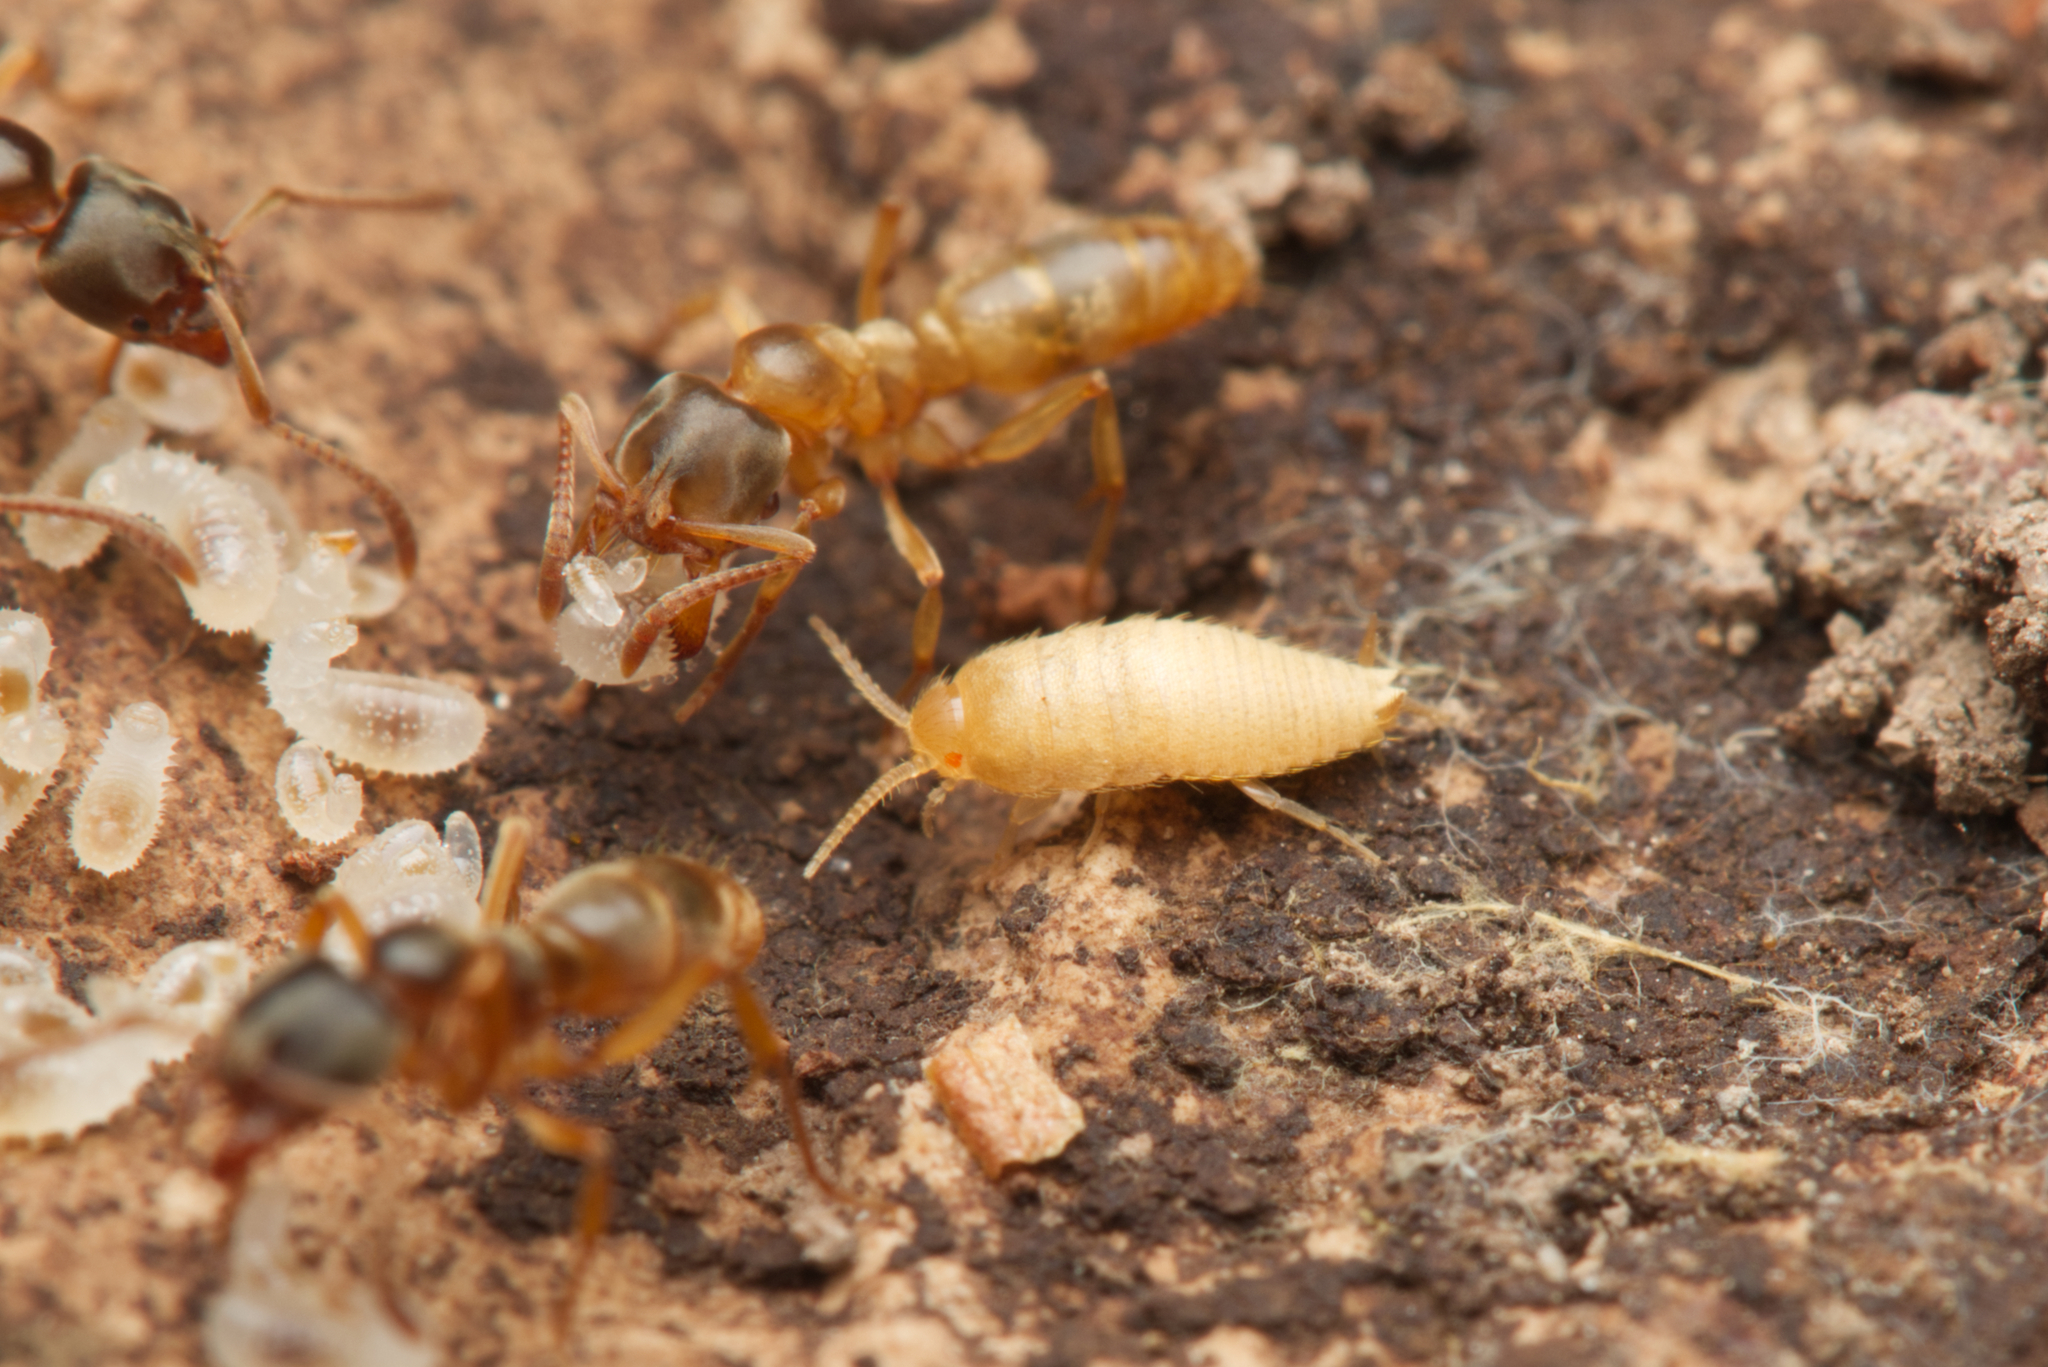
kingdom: Animalia
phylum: Arthropoda
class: Insecta
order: Hymenoptera
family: Formicidae
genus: Brachyponera
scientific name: Brachyponera
